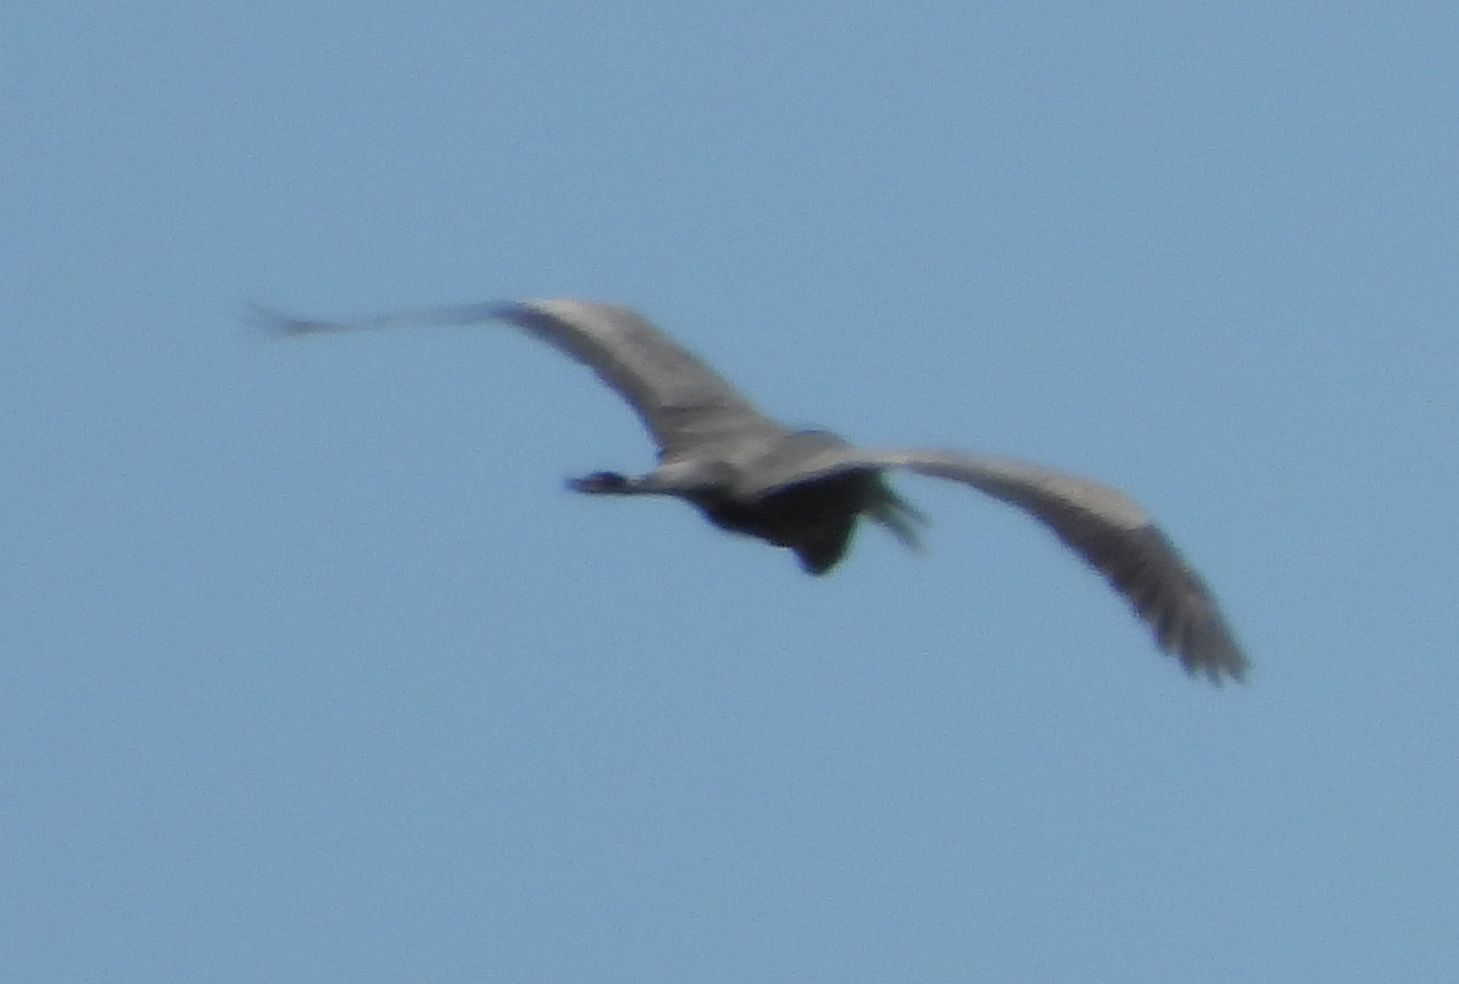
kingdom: Animalia
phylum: Chordata
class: Aves
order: Pelecaniformes
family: Ardeidae
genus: Ardea
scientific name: Ardea herodias
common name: Great blue heron
